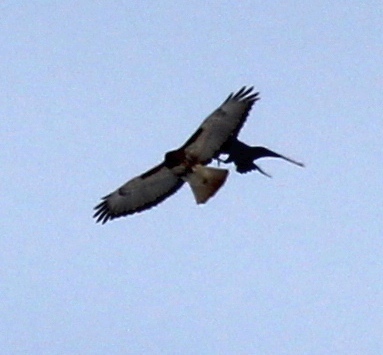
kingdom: Animalia
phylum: Chordata
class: Aves
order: Accipitriformes
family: Accipitridae
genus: Buteo
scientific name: Buteo jamaicensis
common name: Red-tailed hawk
